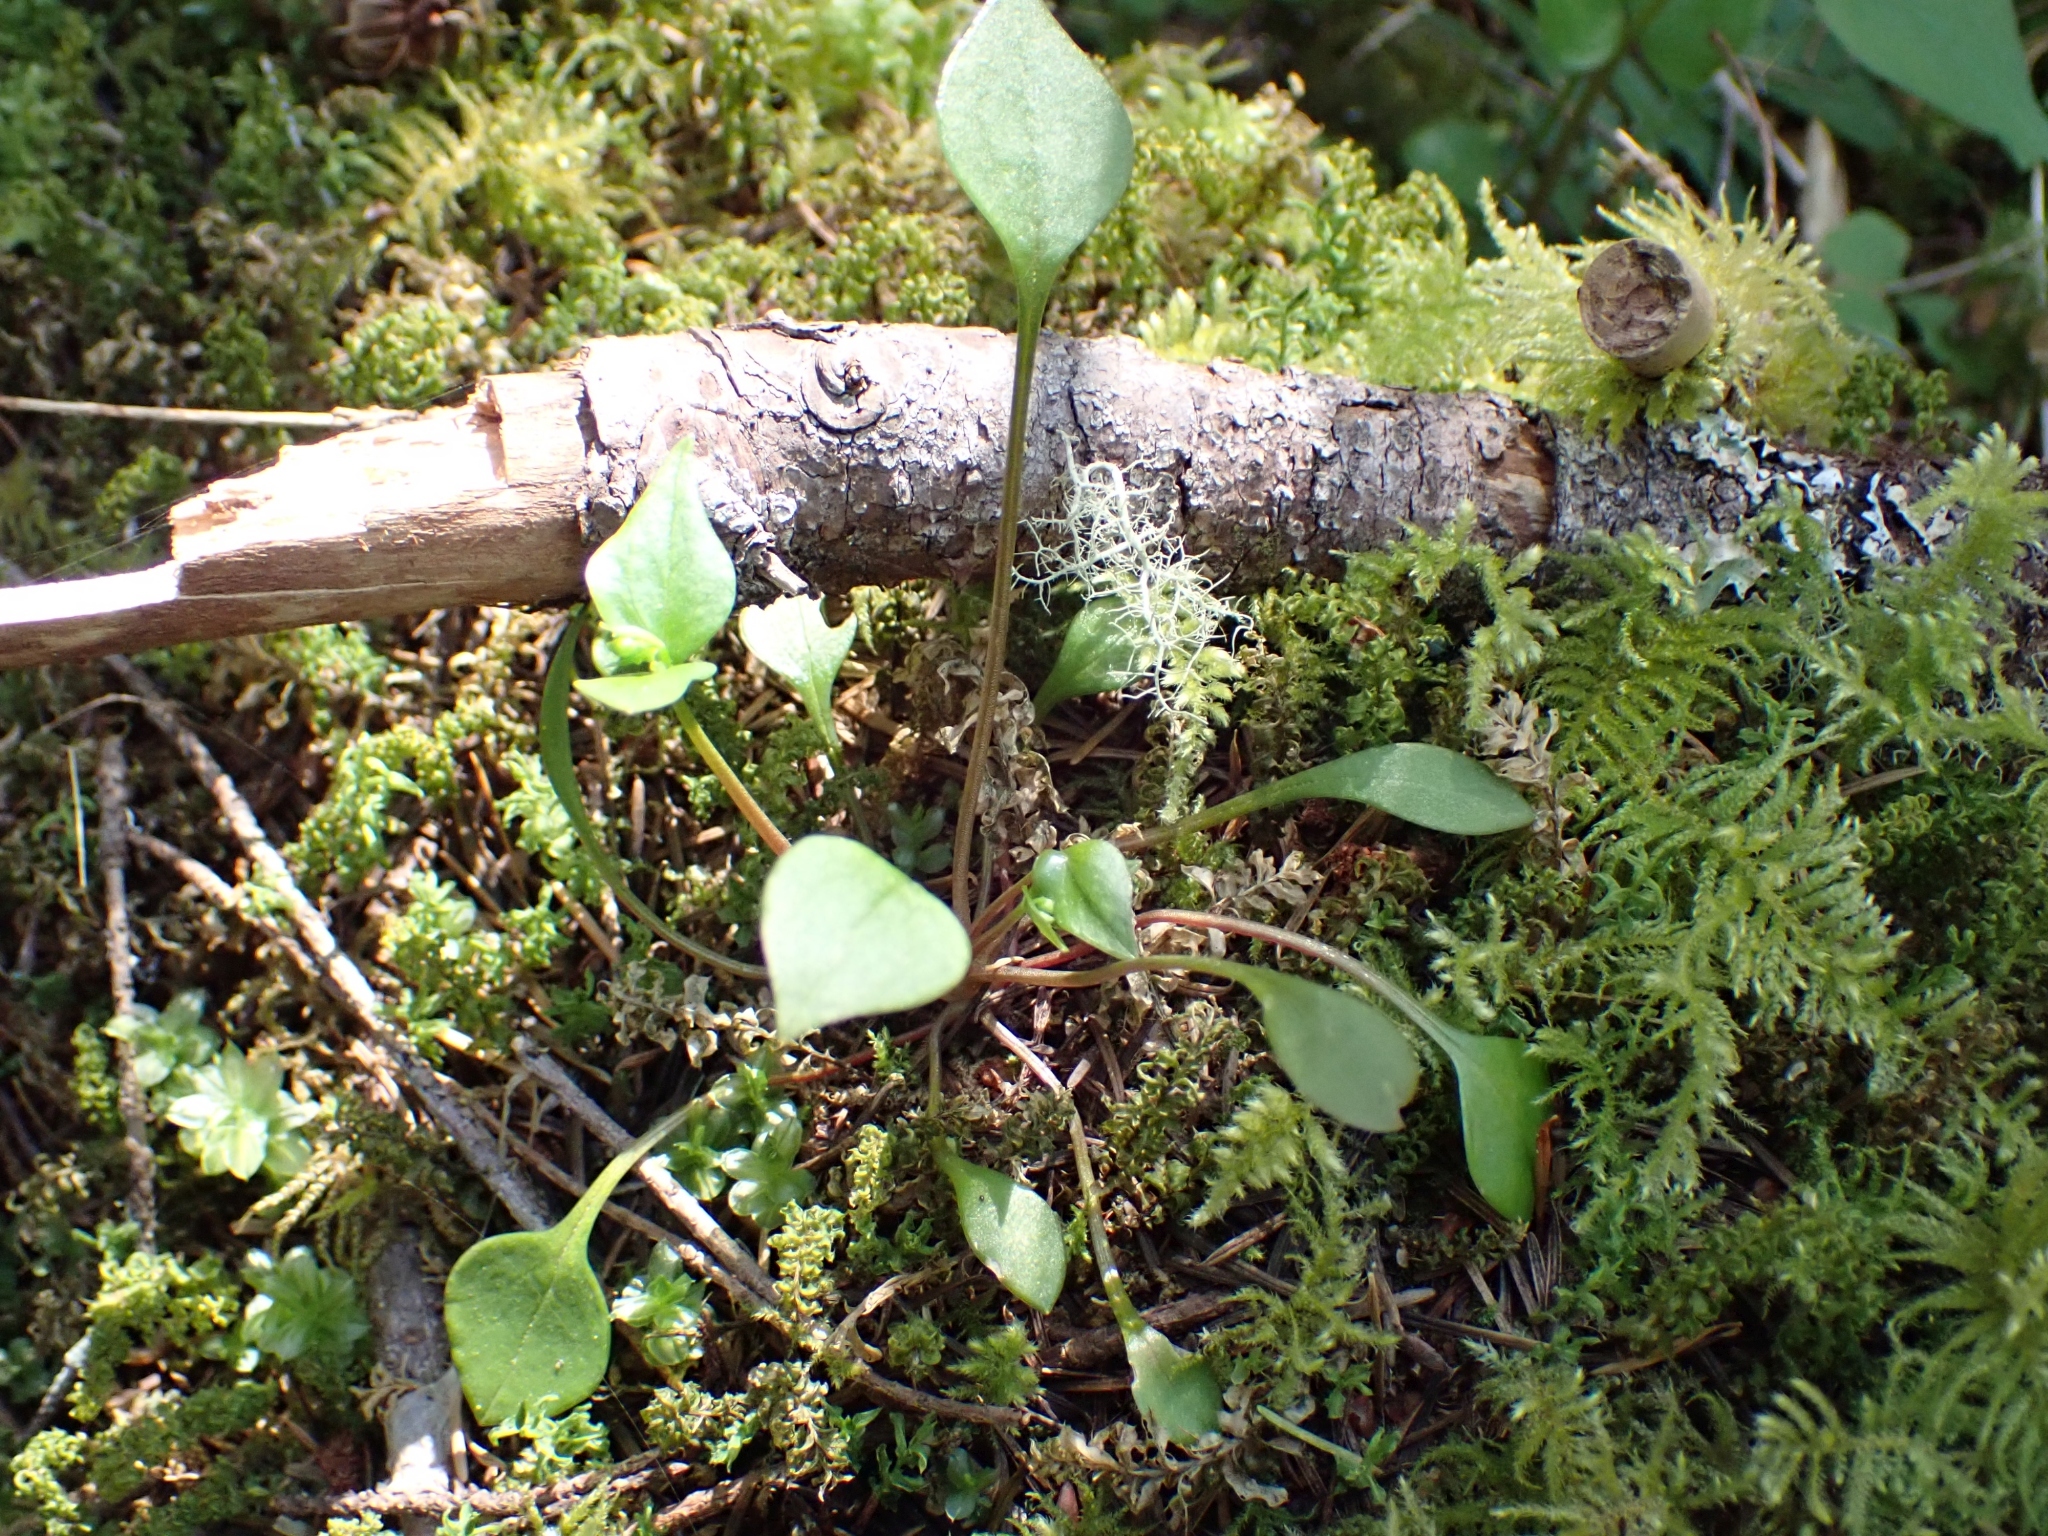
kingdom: Plantae
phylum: Tracheophyta
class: Magnoliopsida
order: Caryophyllales
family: Montiaceae
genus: Claytonia
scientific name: Claytonia sibirica
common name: Pink purslane
